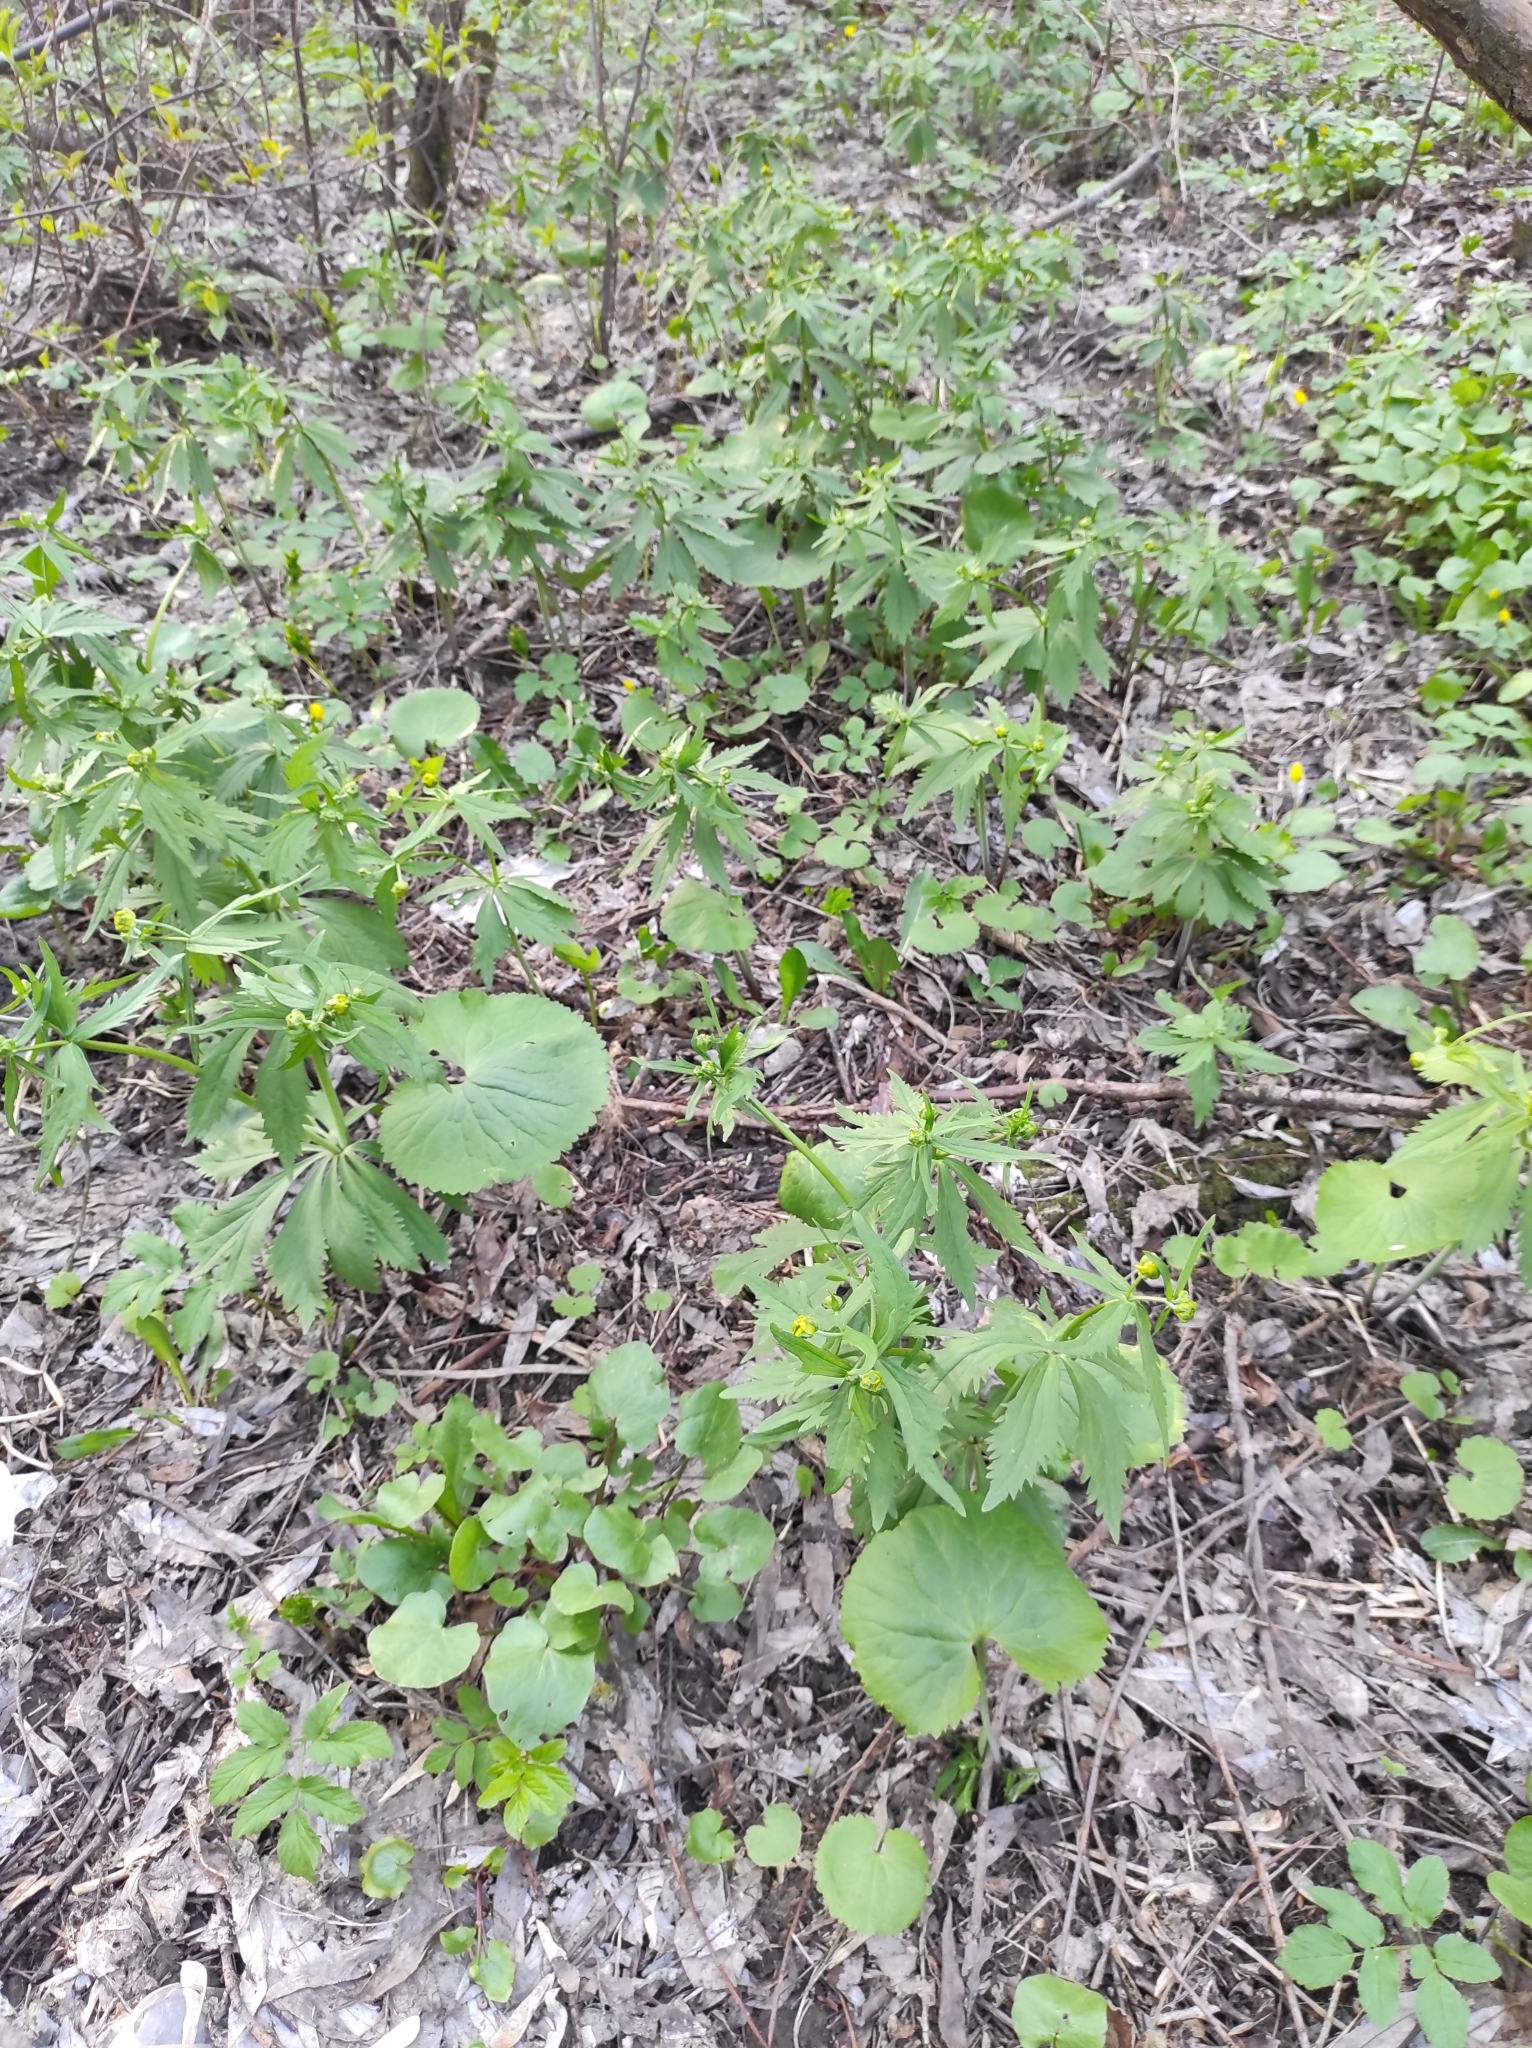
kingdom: Plantae
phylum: Tracheophyta
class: Magnoliopsida
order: Ranunculales
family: Ranunculaceae
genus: Ranunculus
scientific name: Ranunculus cassubicus
